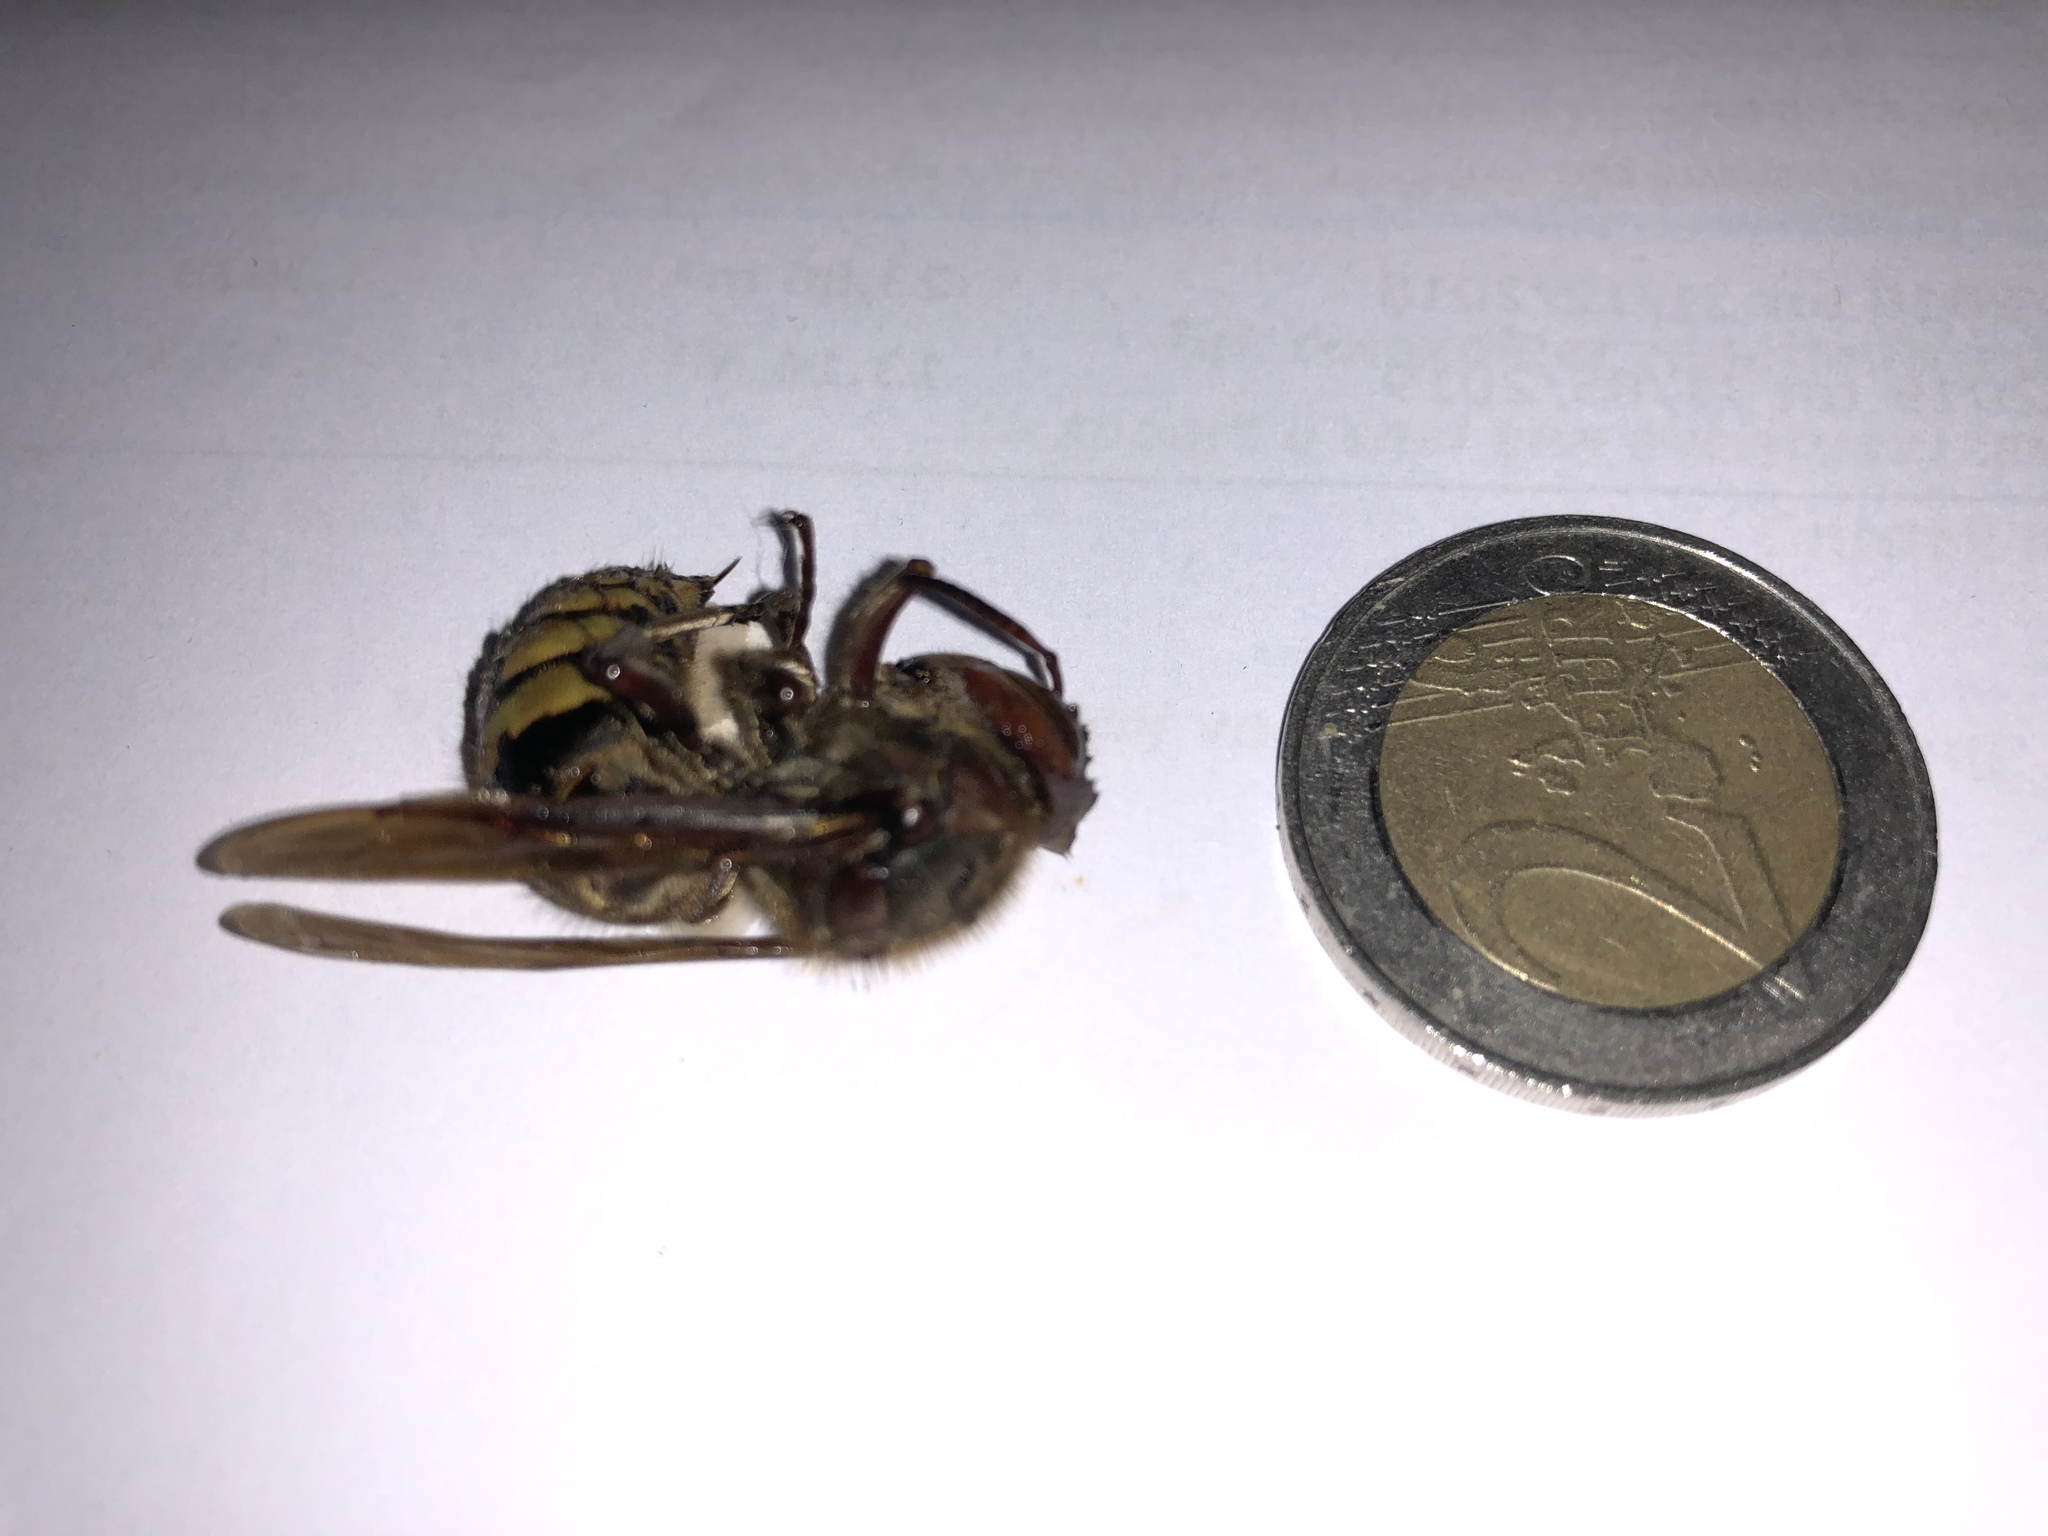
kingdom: Animalia
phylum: Arthropoda
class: Insecta
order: Hymenoptera
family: Vespidae
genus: Vespa
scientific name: Vespa crabro
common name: Hornet
